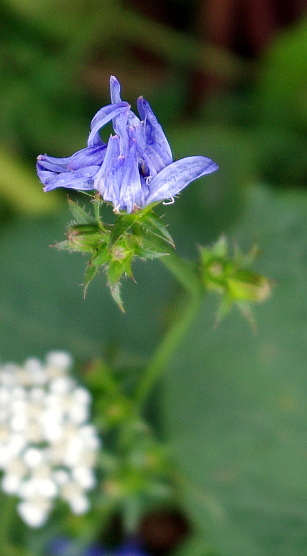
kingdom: Plantae
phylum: Tracheophyta
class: Magnoliopsida
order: Asterales
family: Asteraceae
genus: Cichorium
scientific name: Cichorium intybus
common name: Chicory
